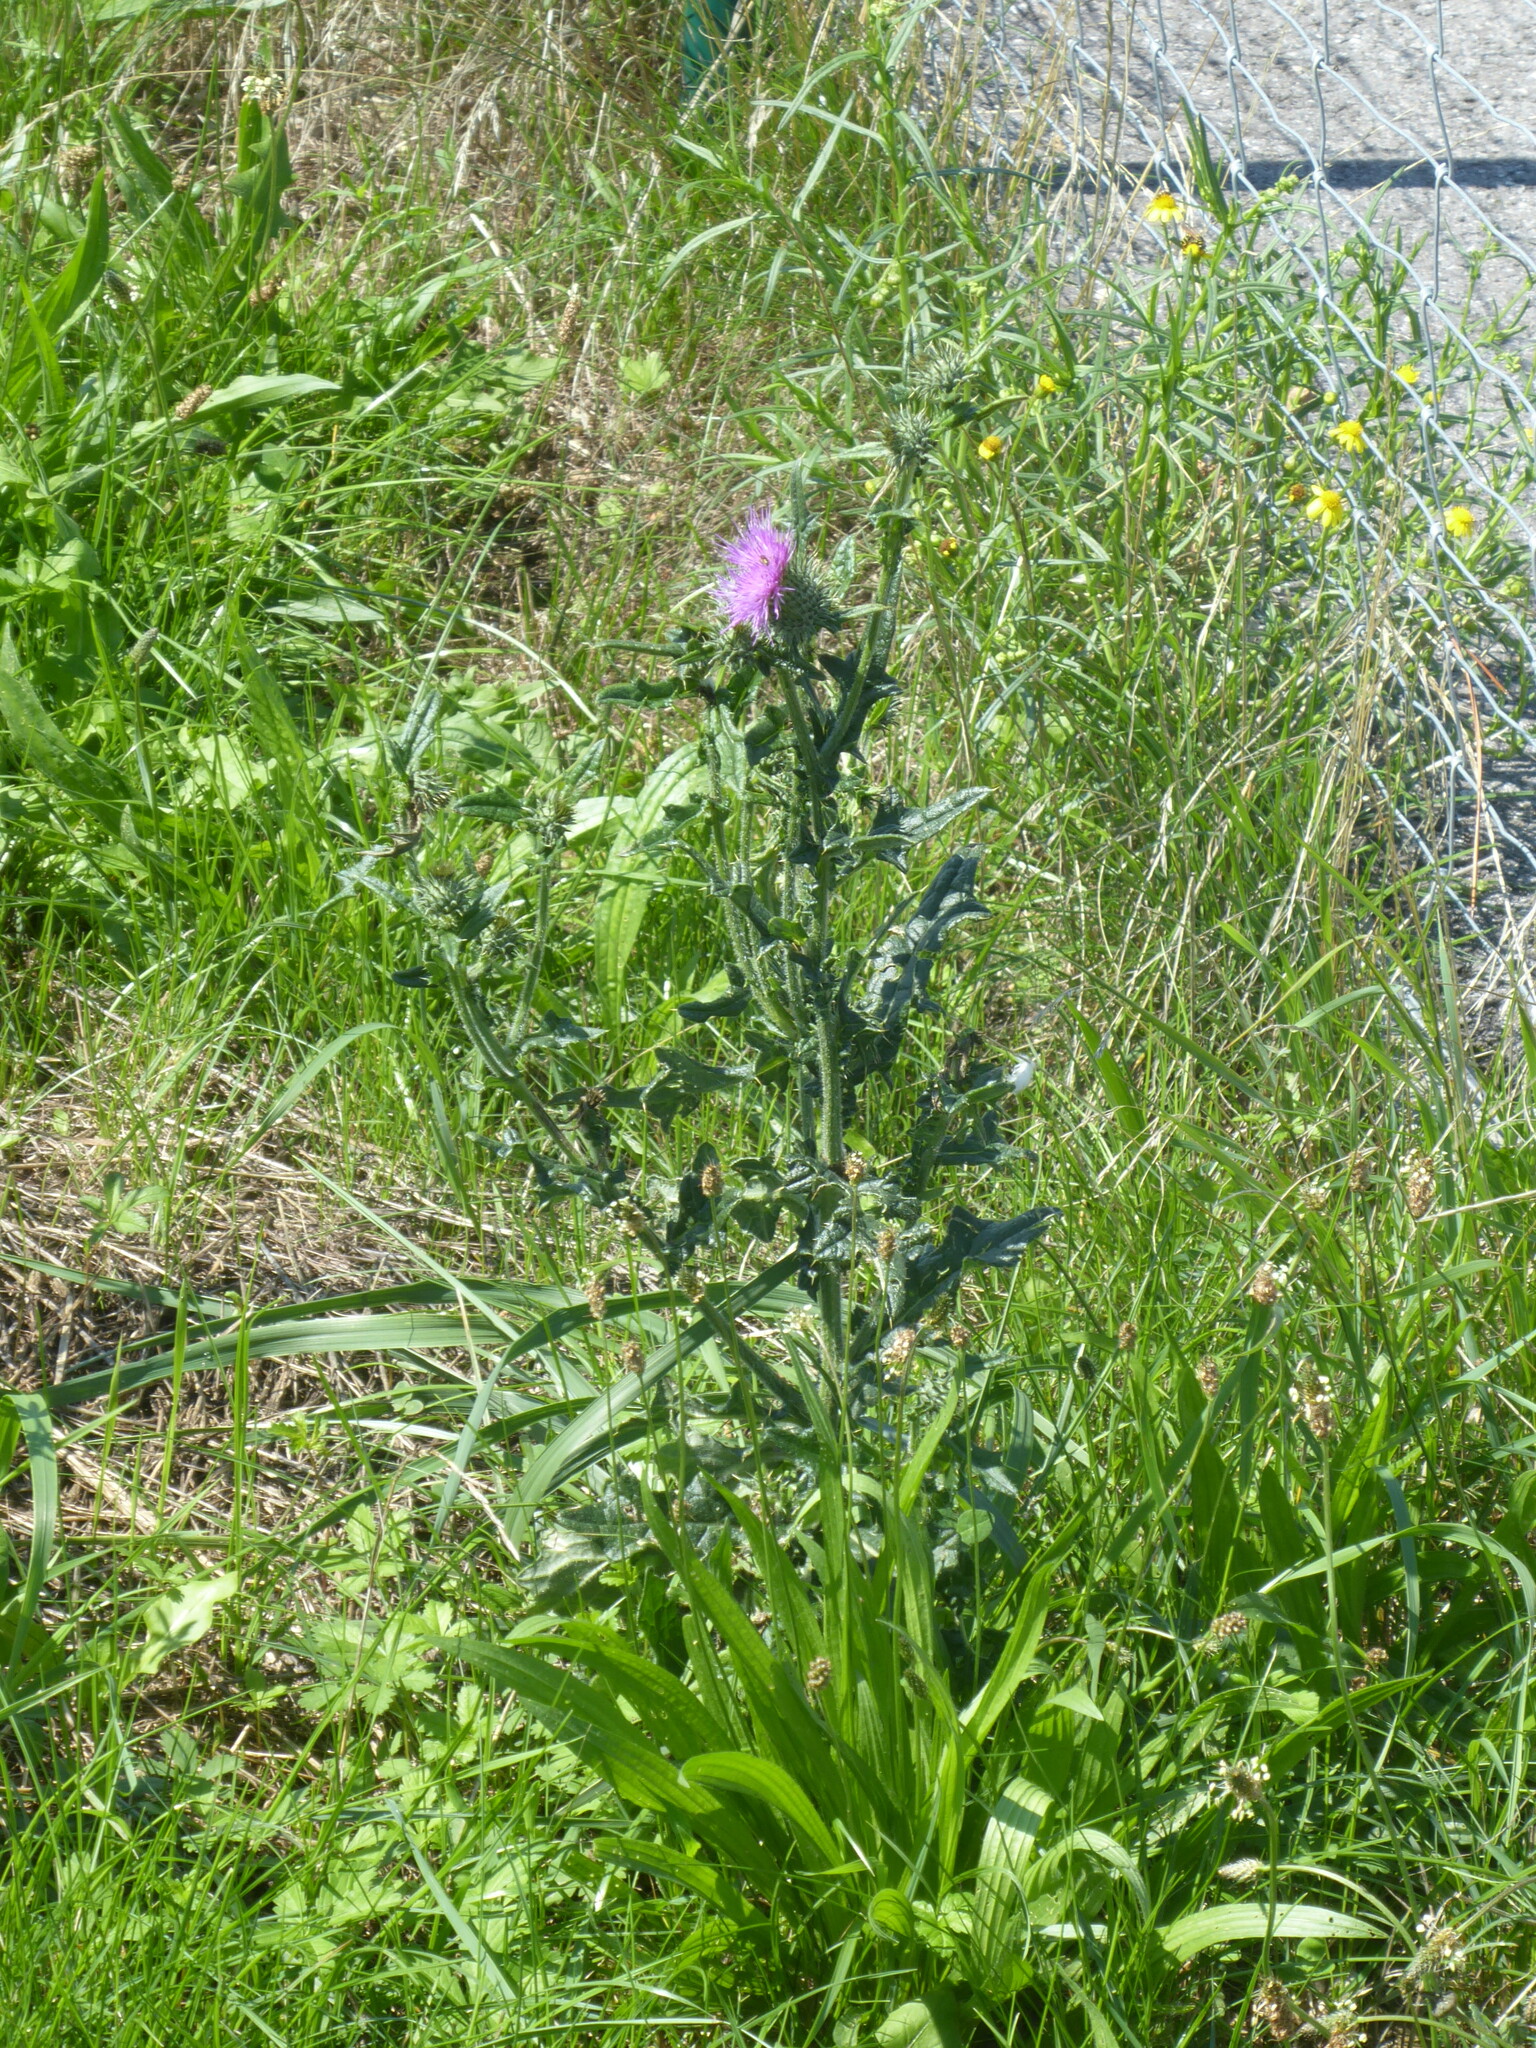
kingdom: Plantae
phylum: Tracheophyta
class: Magnoliopsida
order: Asterales
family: Asteraceae
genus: Cirsium
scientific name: Cirsium vulgare
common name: Bull thistle
